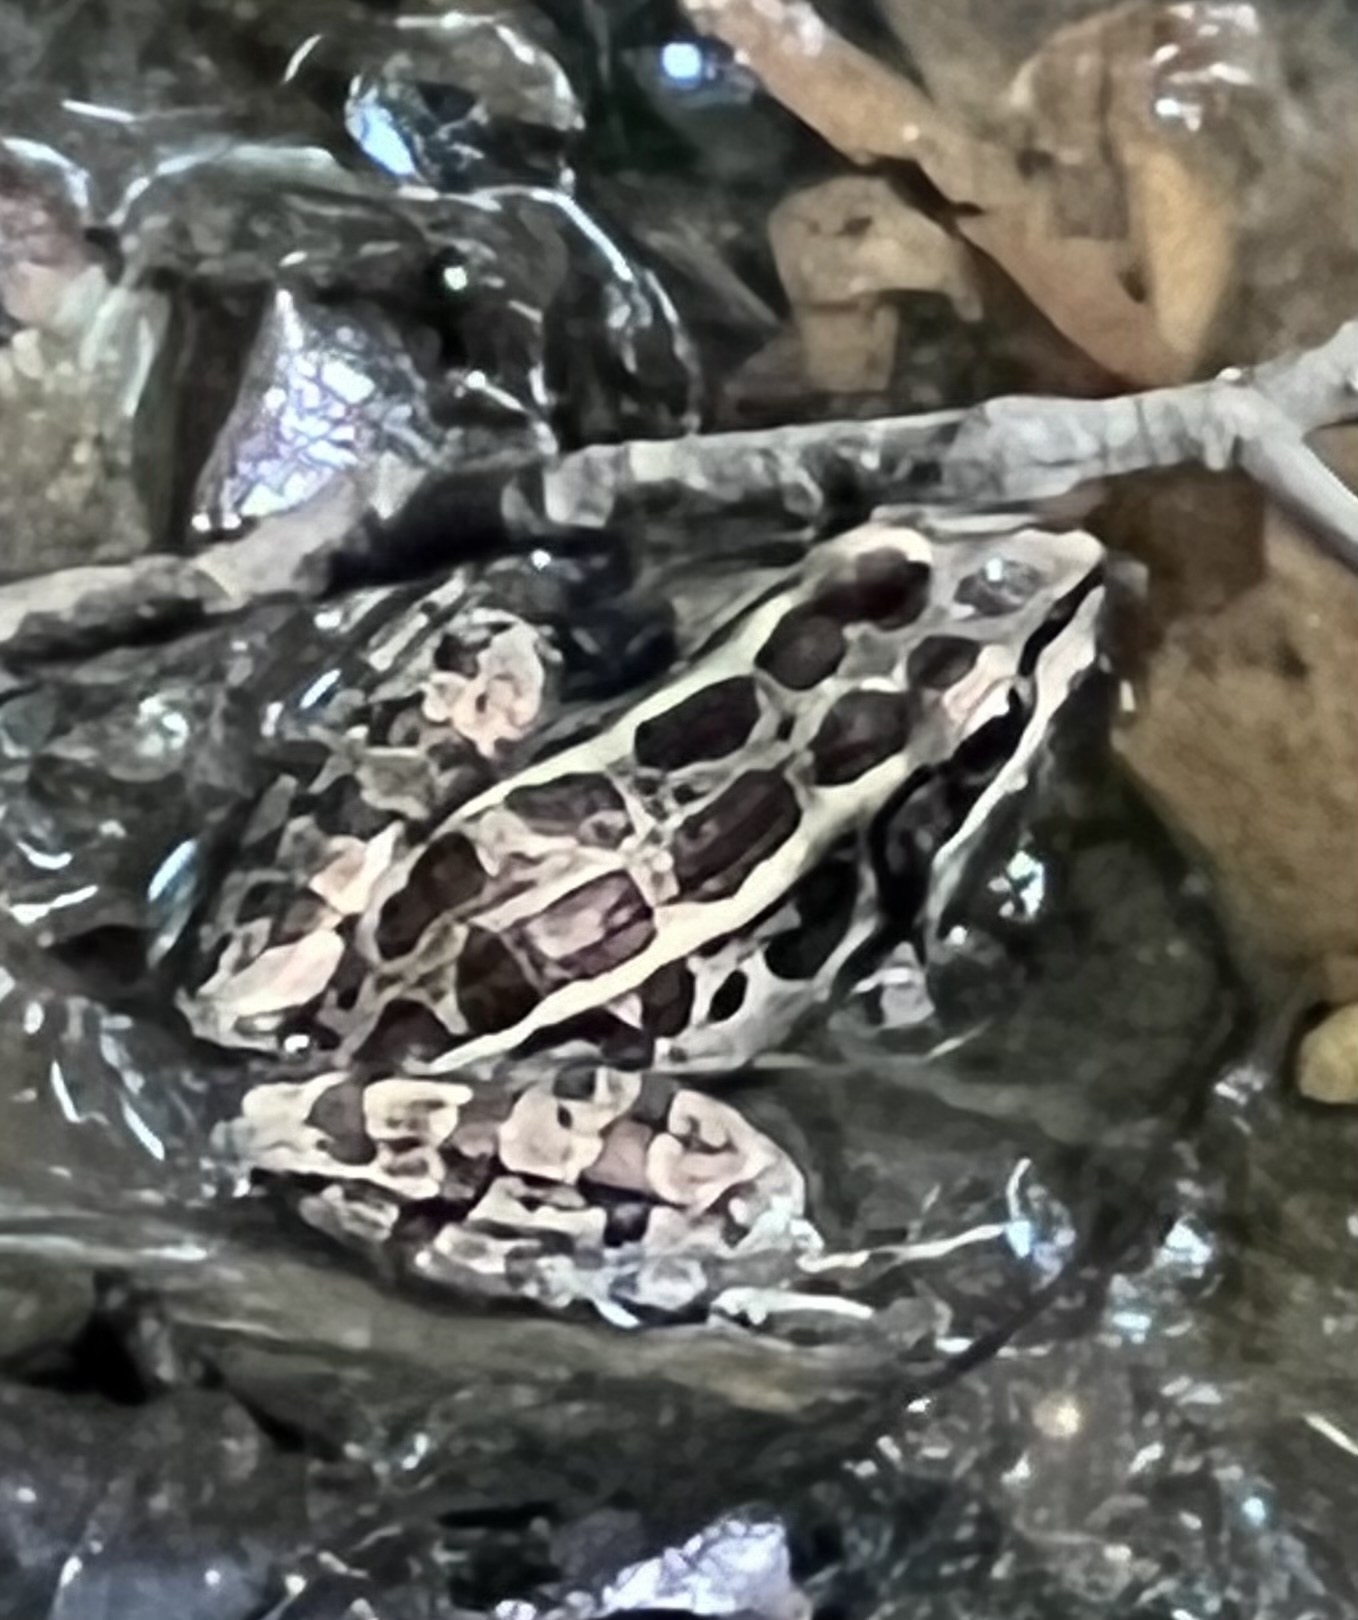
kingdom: Animalia
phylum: Chordata
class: Amphibia
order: Anura
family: Ranidae
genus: Lithobates
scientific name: Lithobates palustris
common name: Pickerel frog
